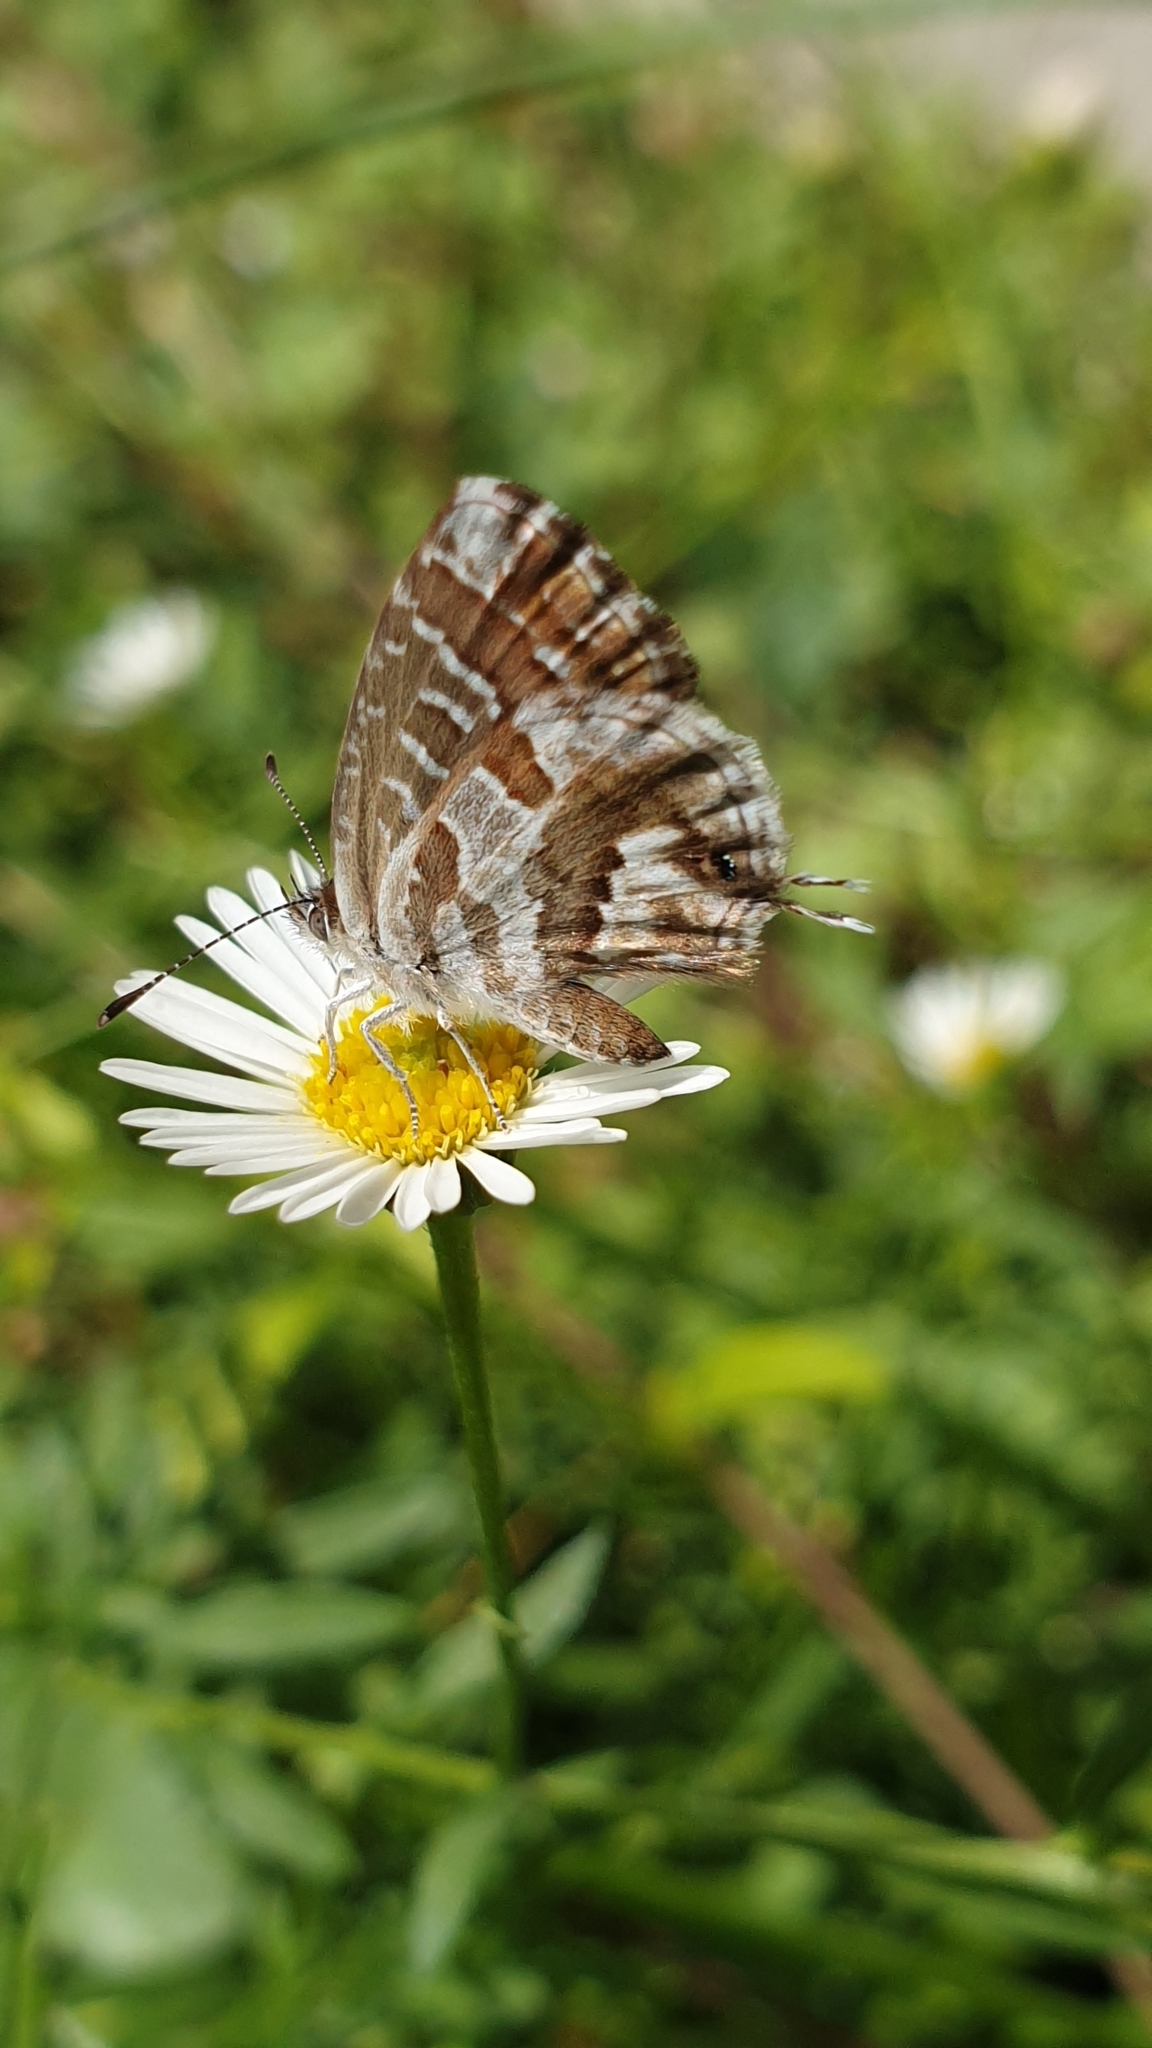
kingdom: Animalia
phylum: Arthropoda
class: Insecta
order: Lepidoptera
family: Lycaenidae
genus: Cacyreus
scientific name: Cacyreus marshalli
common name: Geranium bronze
